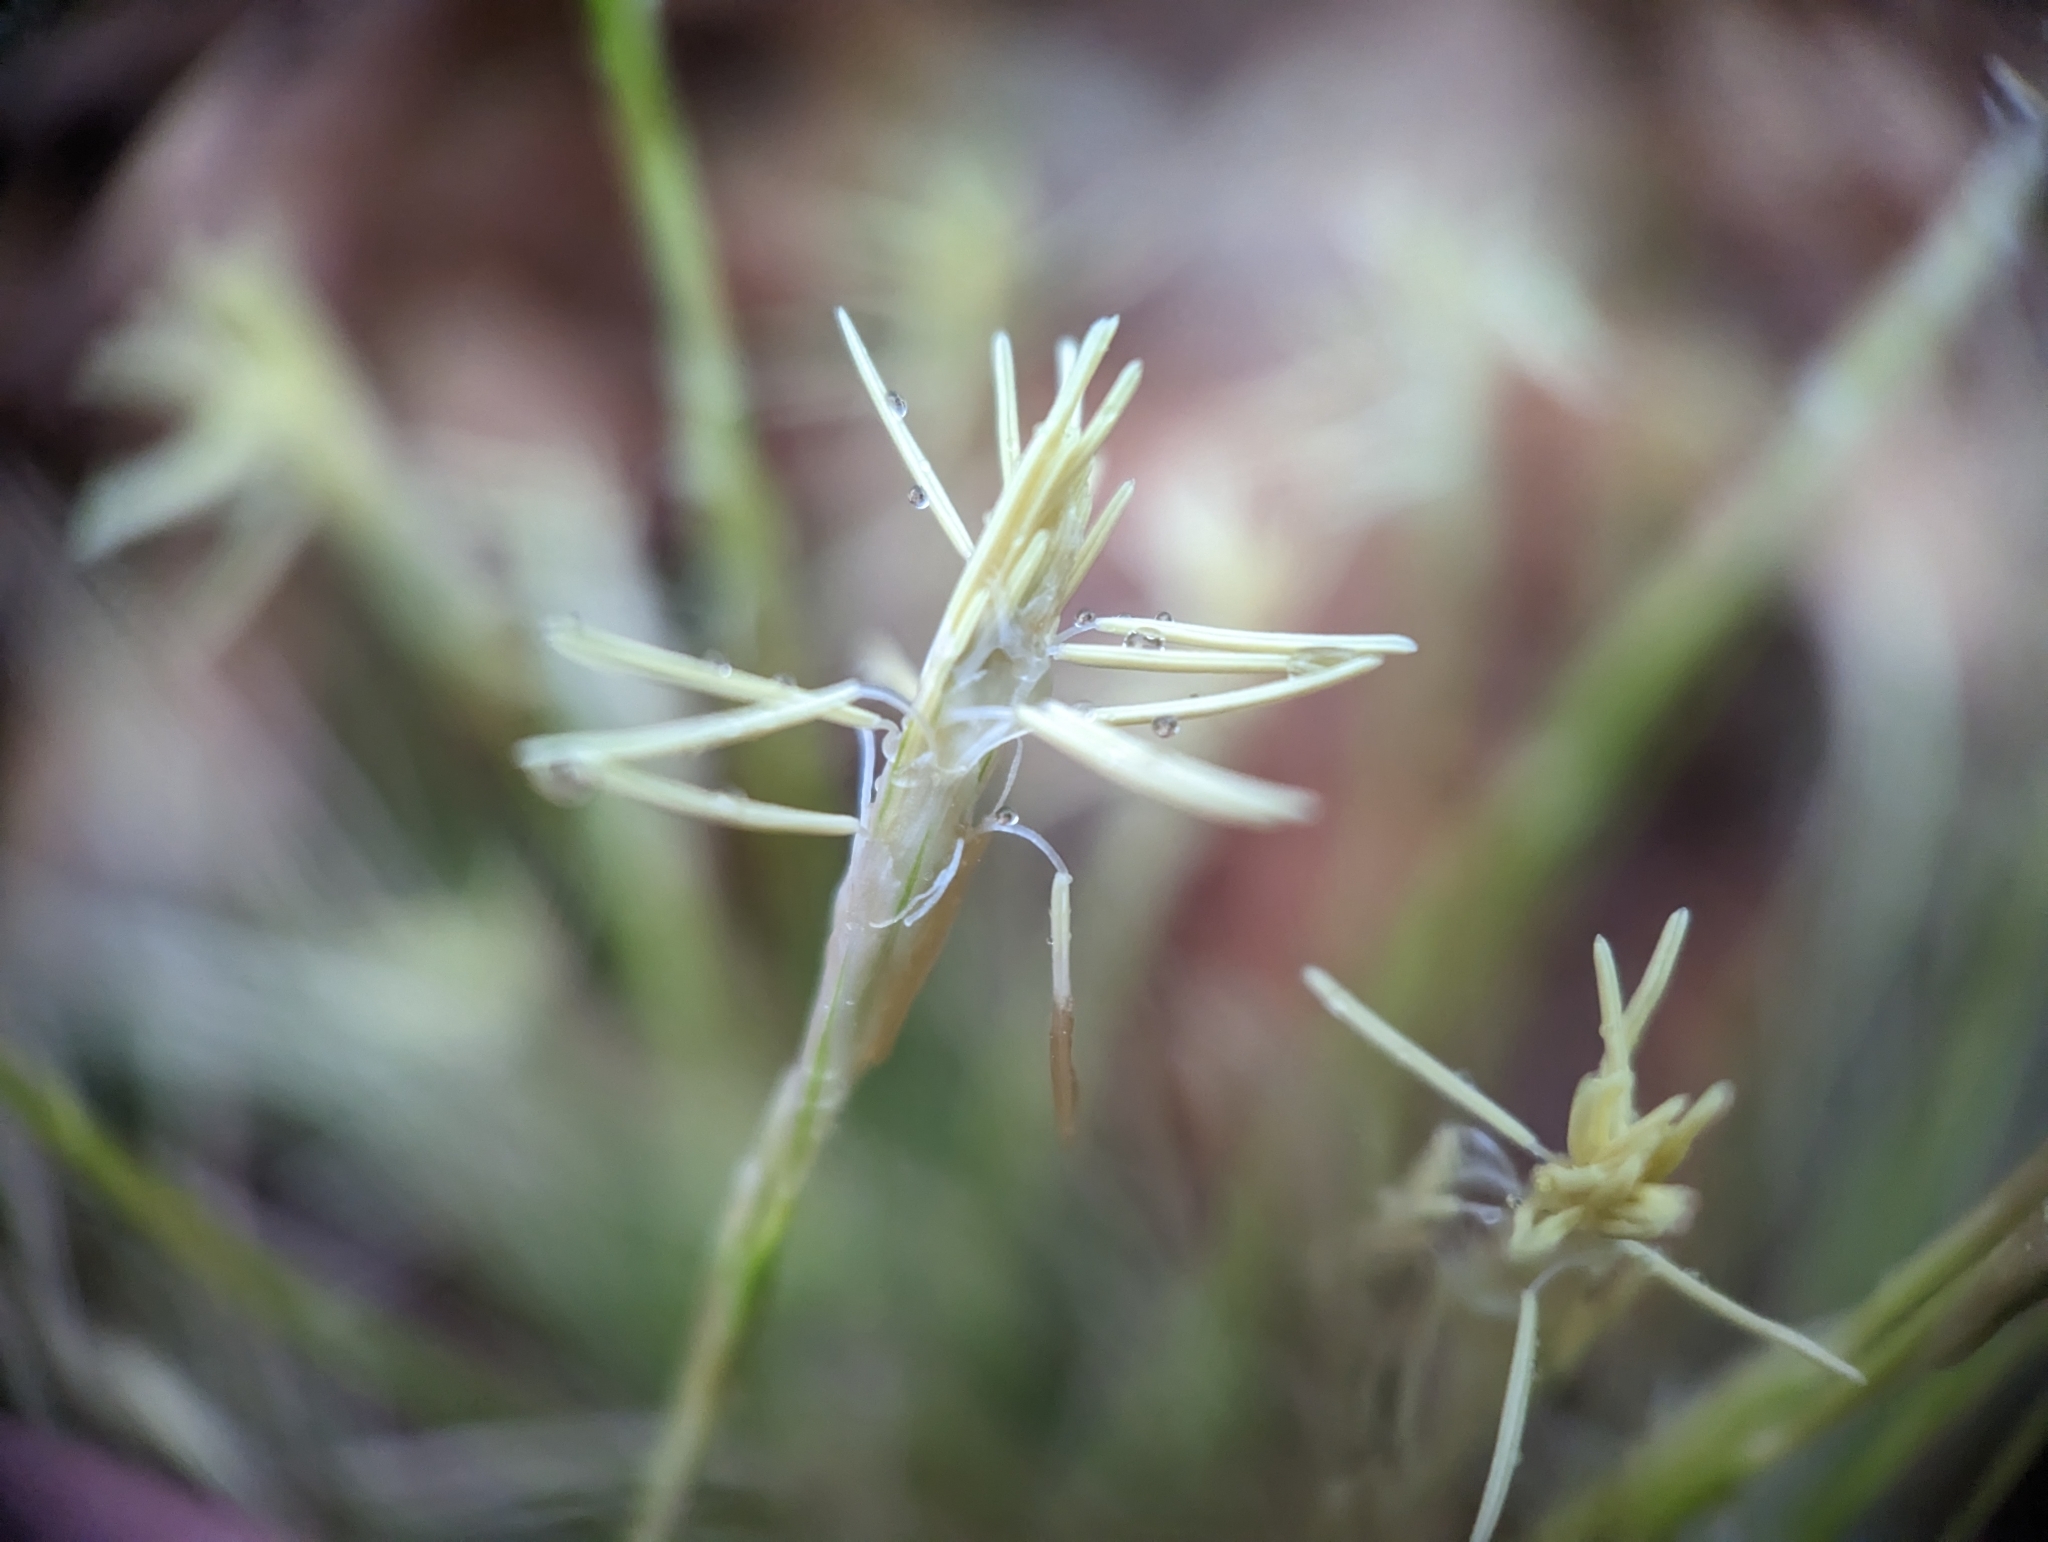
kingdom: Plantae
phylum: Tracheophyta
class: Liliopsida
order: Poales
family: Cyperaceae
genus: Carex
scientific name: Carex alba
